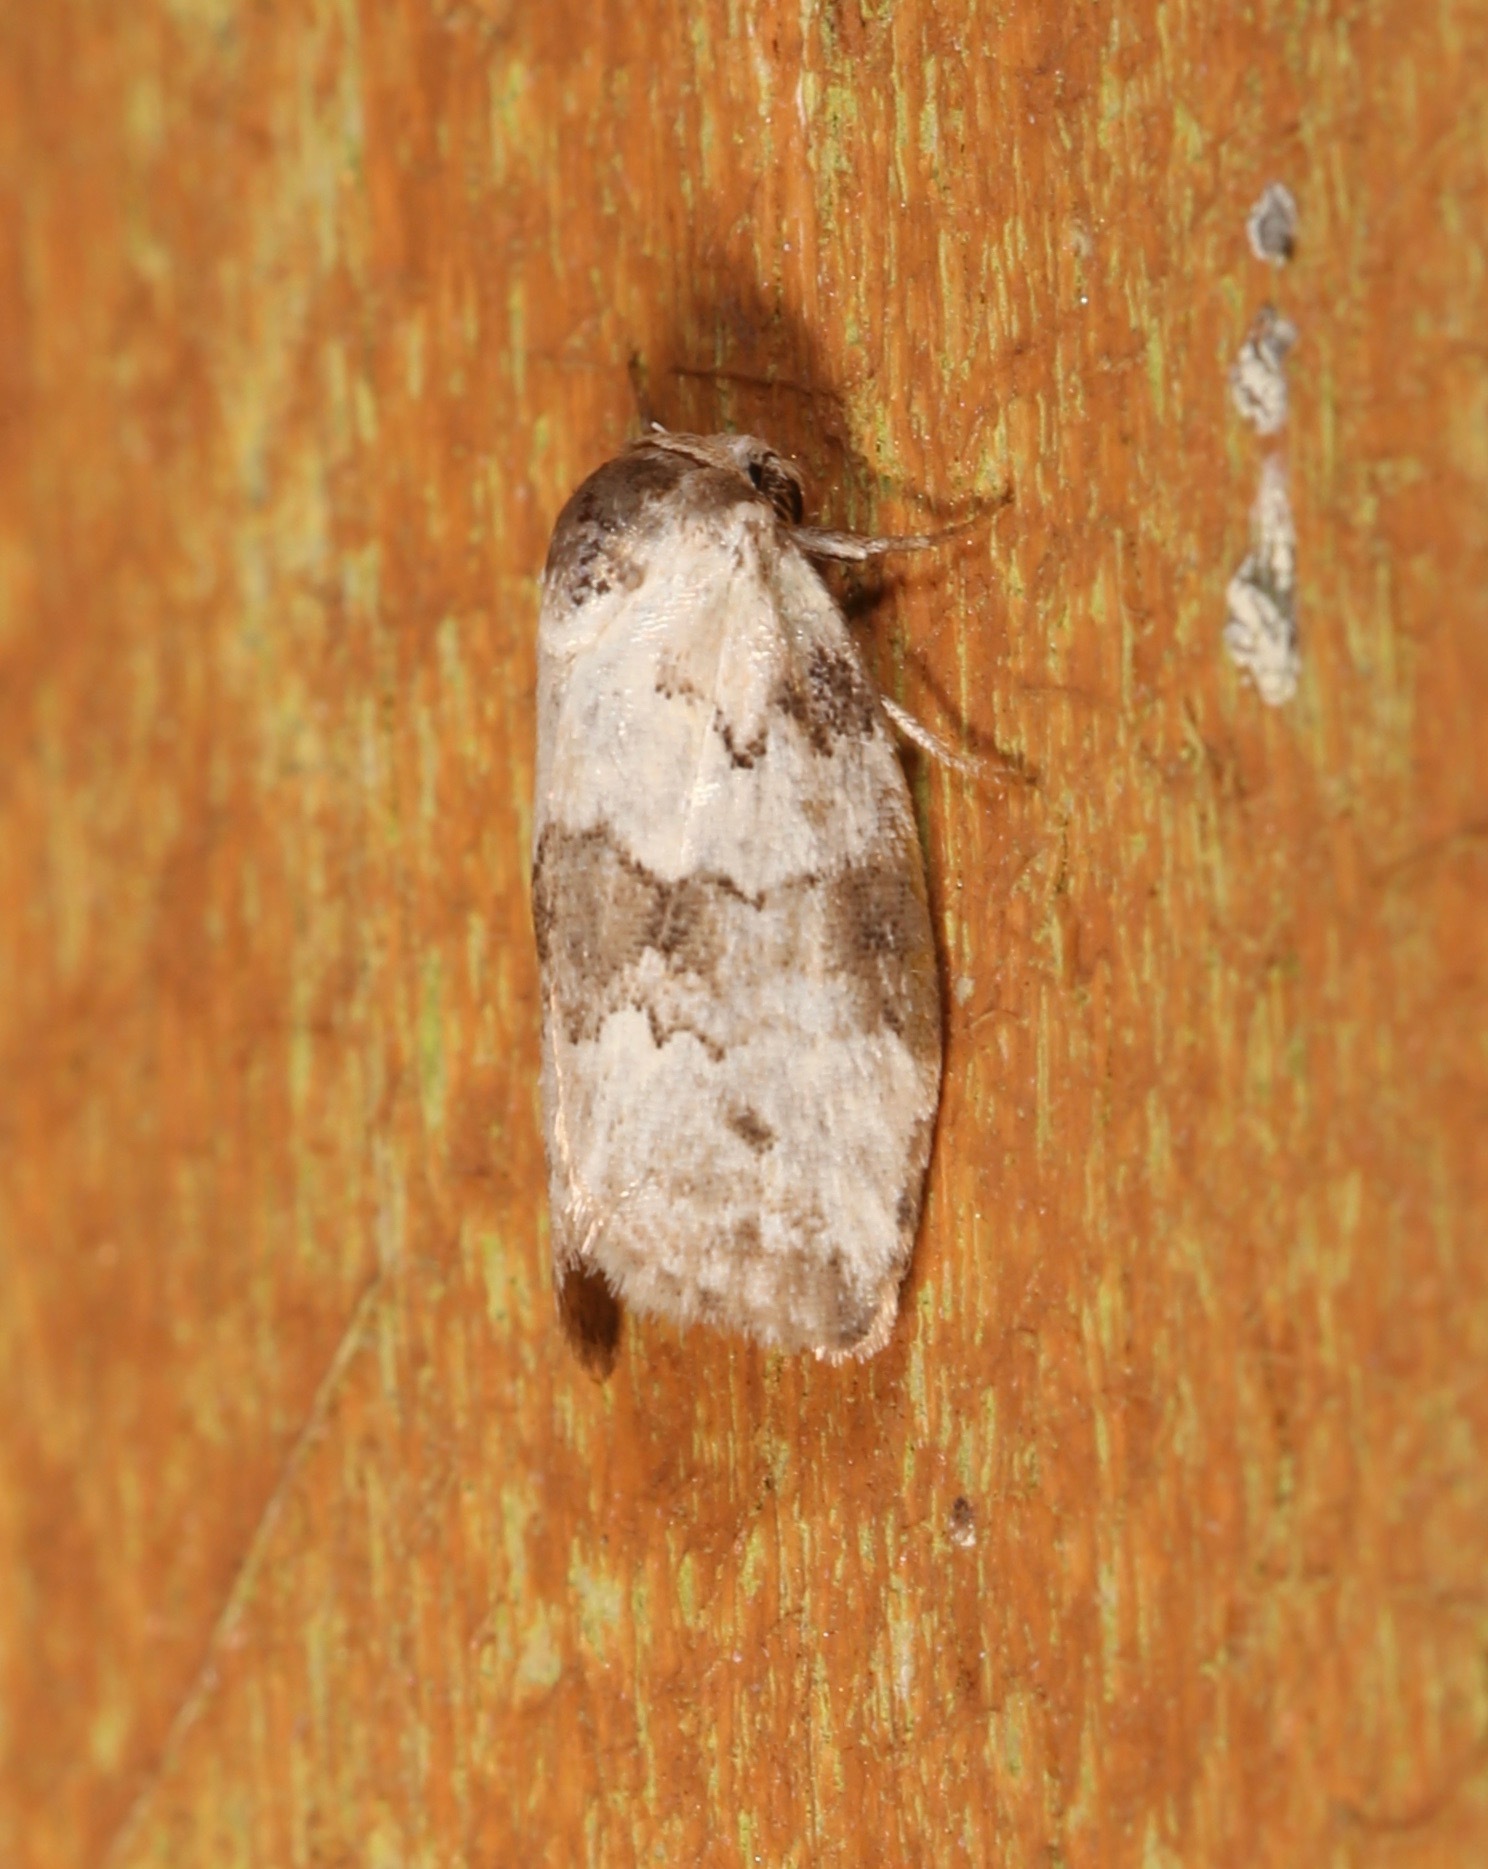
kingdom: Animalia
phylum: Arthropoda
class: Insecta
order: Lepidoptera
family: Nolidae
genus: Afrida
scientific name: Afrida ydatodes
